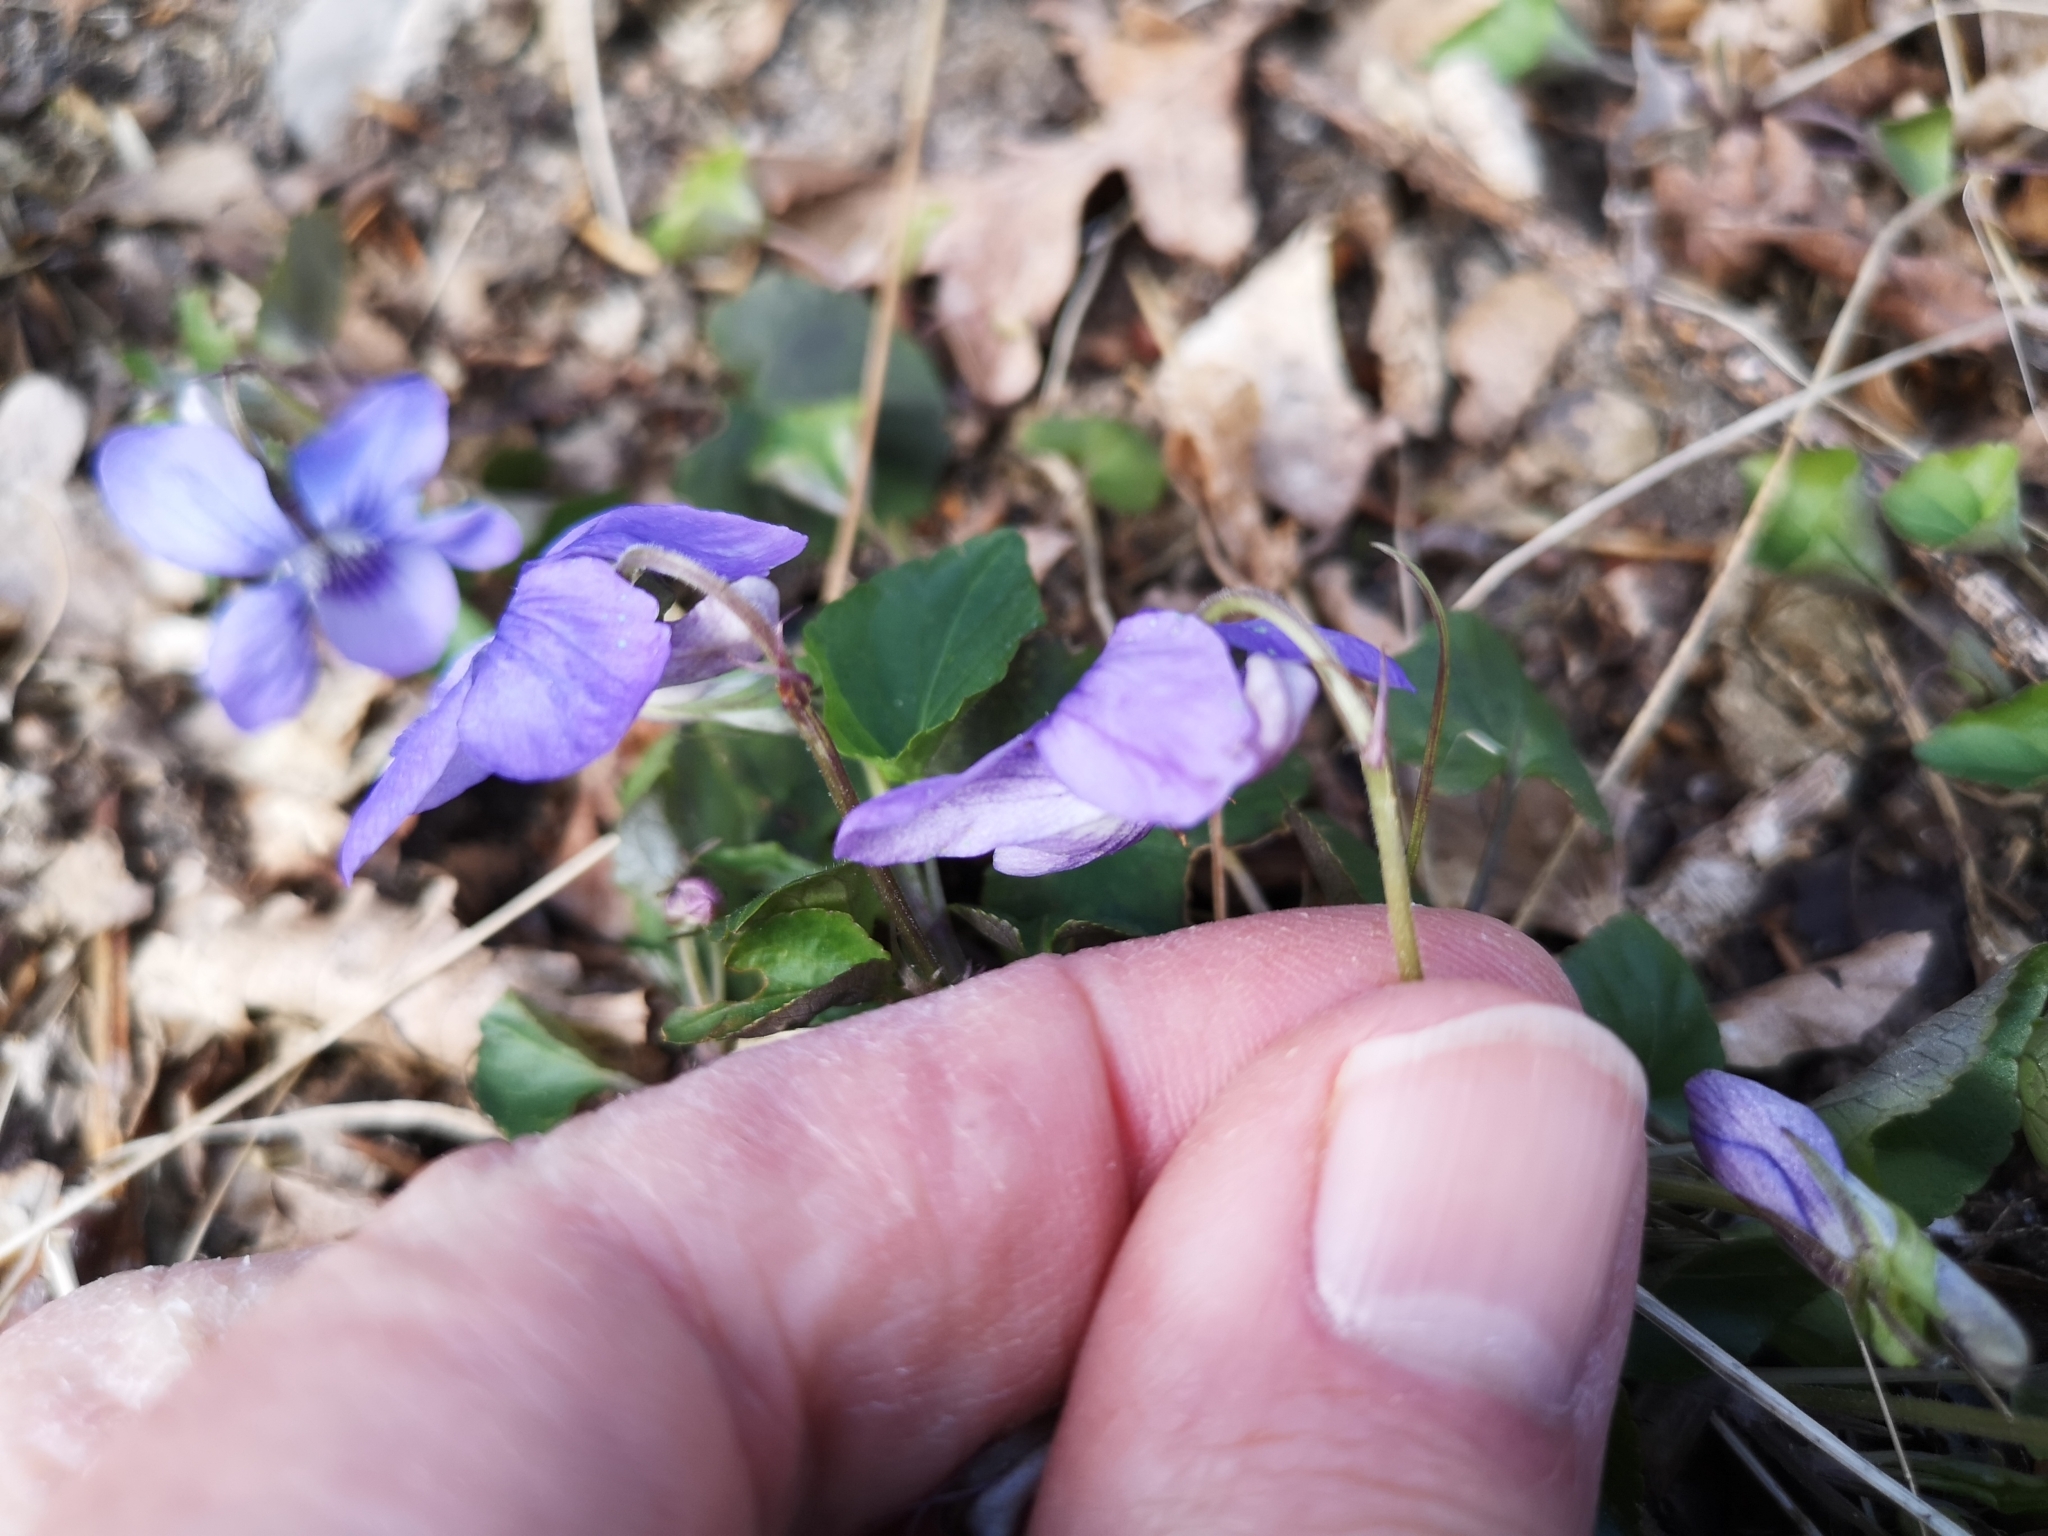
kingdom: Plantae
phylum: Tracheophyta
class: Magnoliopsida
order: Malpighiales
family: Violaceae
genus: Viola
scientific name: Viola riviniana
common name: Common dog-violet
